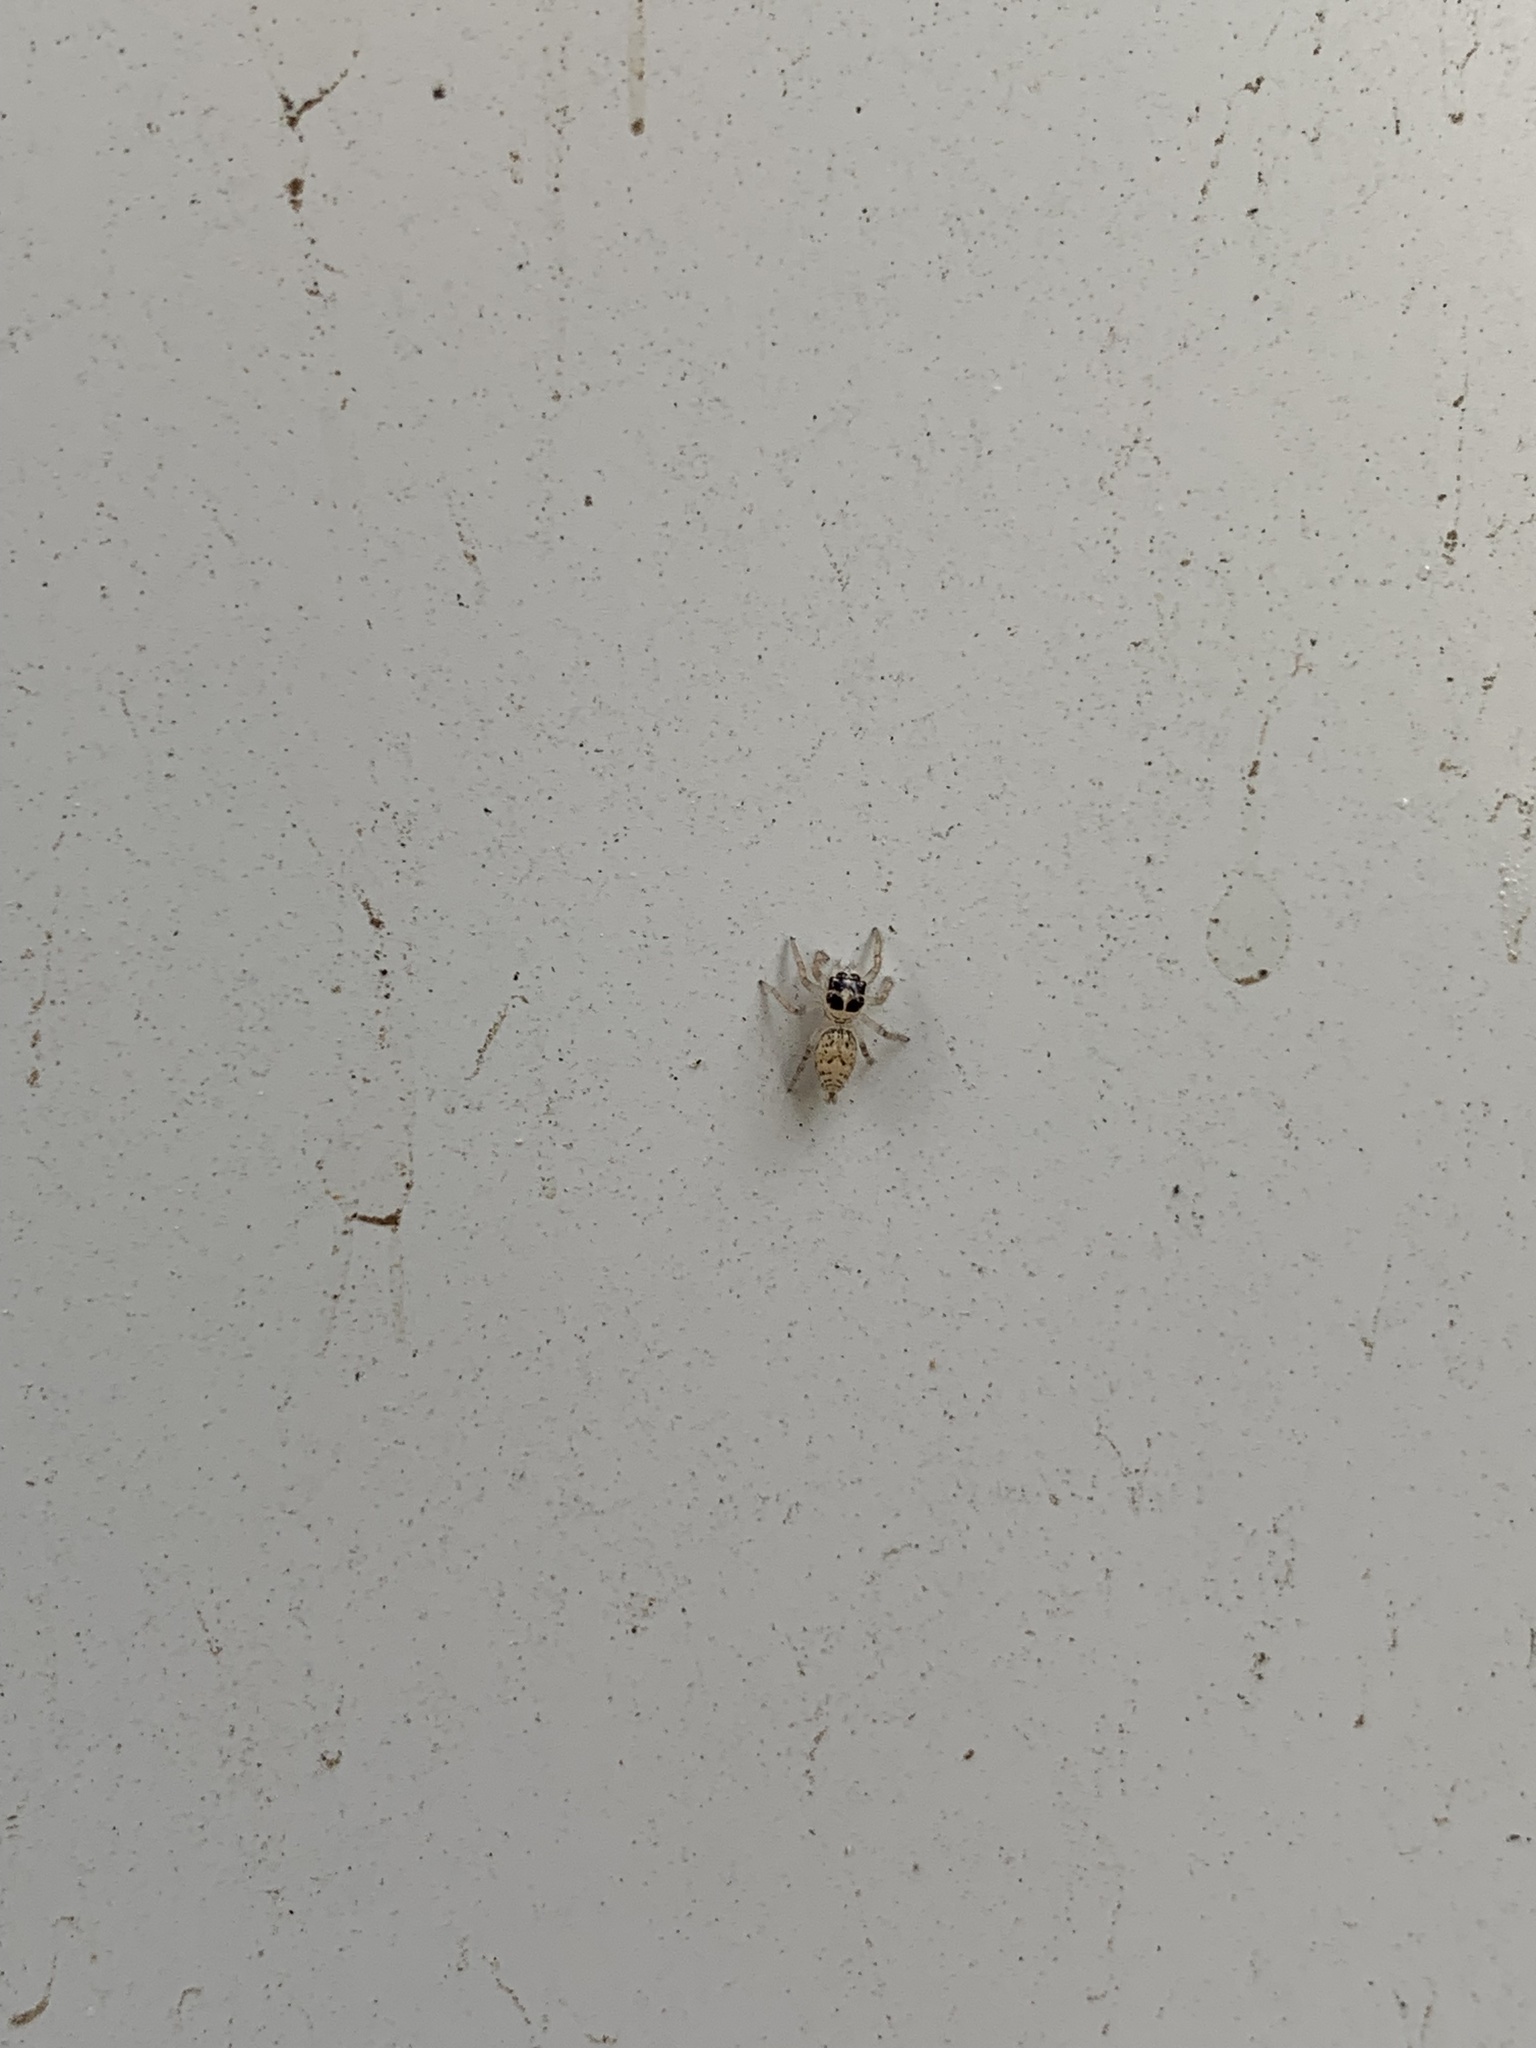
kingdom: Animalia
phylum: Arthropoda
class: Arachnida
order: Araneae
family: Salticidae
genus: Colonus
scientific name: Colonus hesperus
